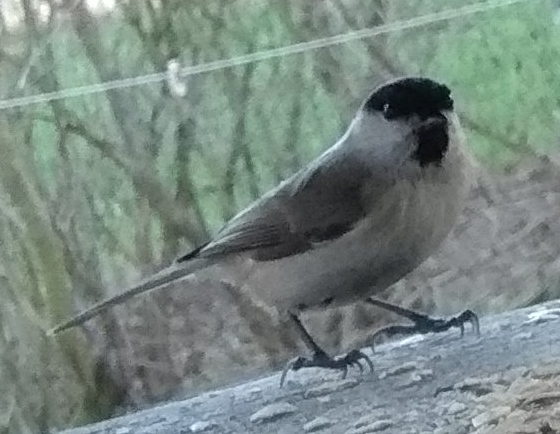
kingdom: Animalia
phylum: Chordata
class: Aves
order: Passeriformes
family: Paridae
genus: Poecile
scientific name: Poecile palustris
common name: Marsh tit
